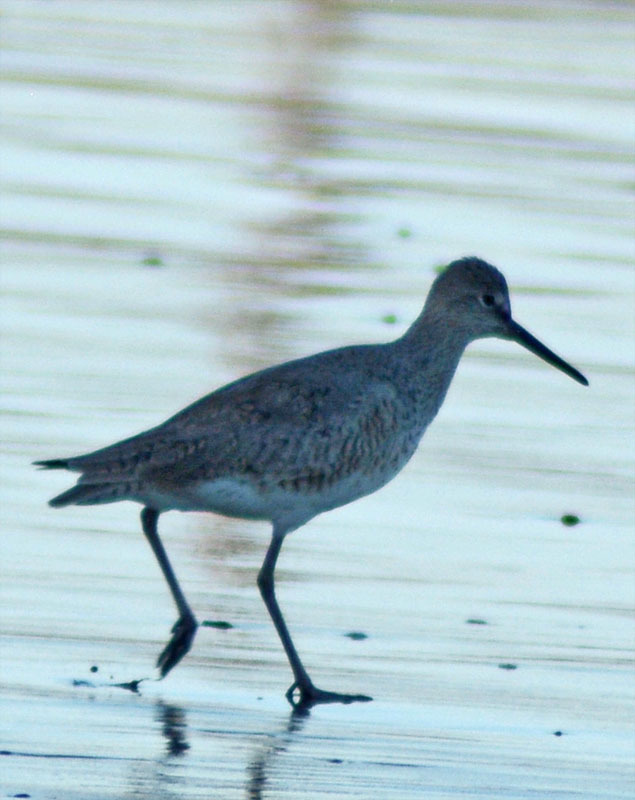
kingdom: Animalia
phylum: Chordata
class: Aves
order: Charadriiformes
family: Scolopacidae
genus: Tringa
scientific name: Tringa semipalmata
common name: Willet
